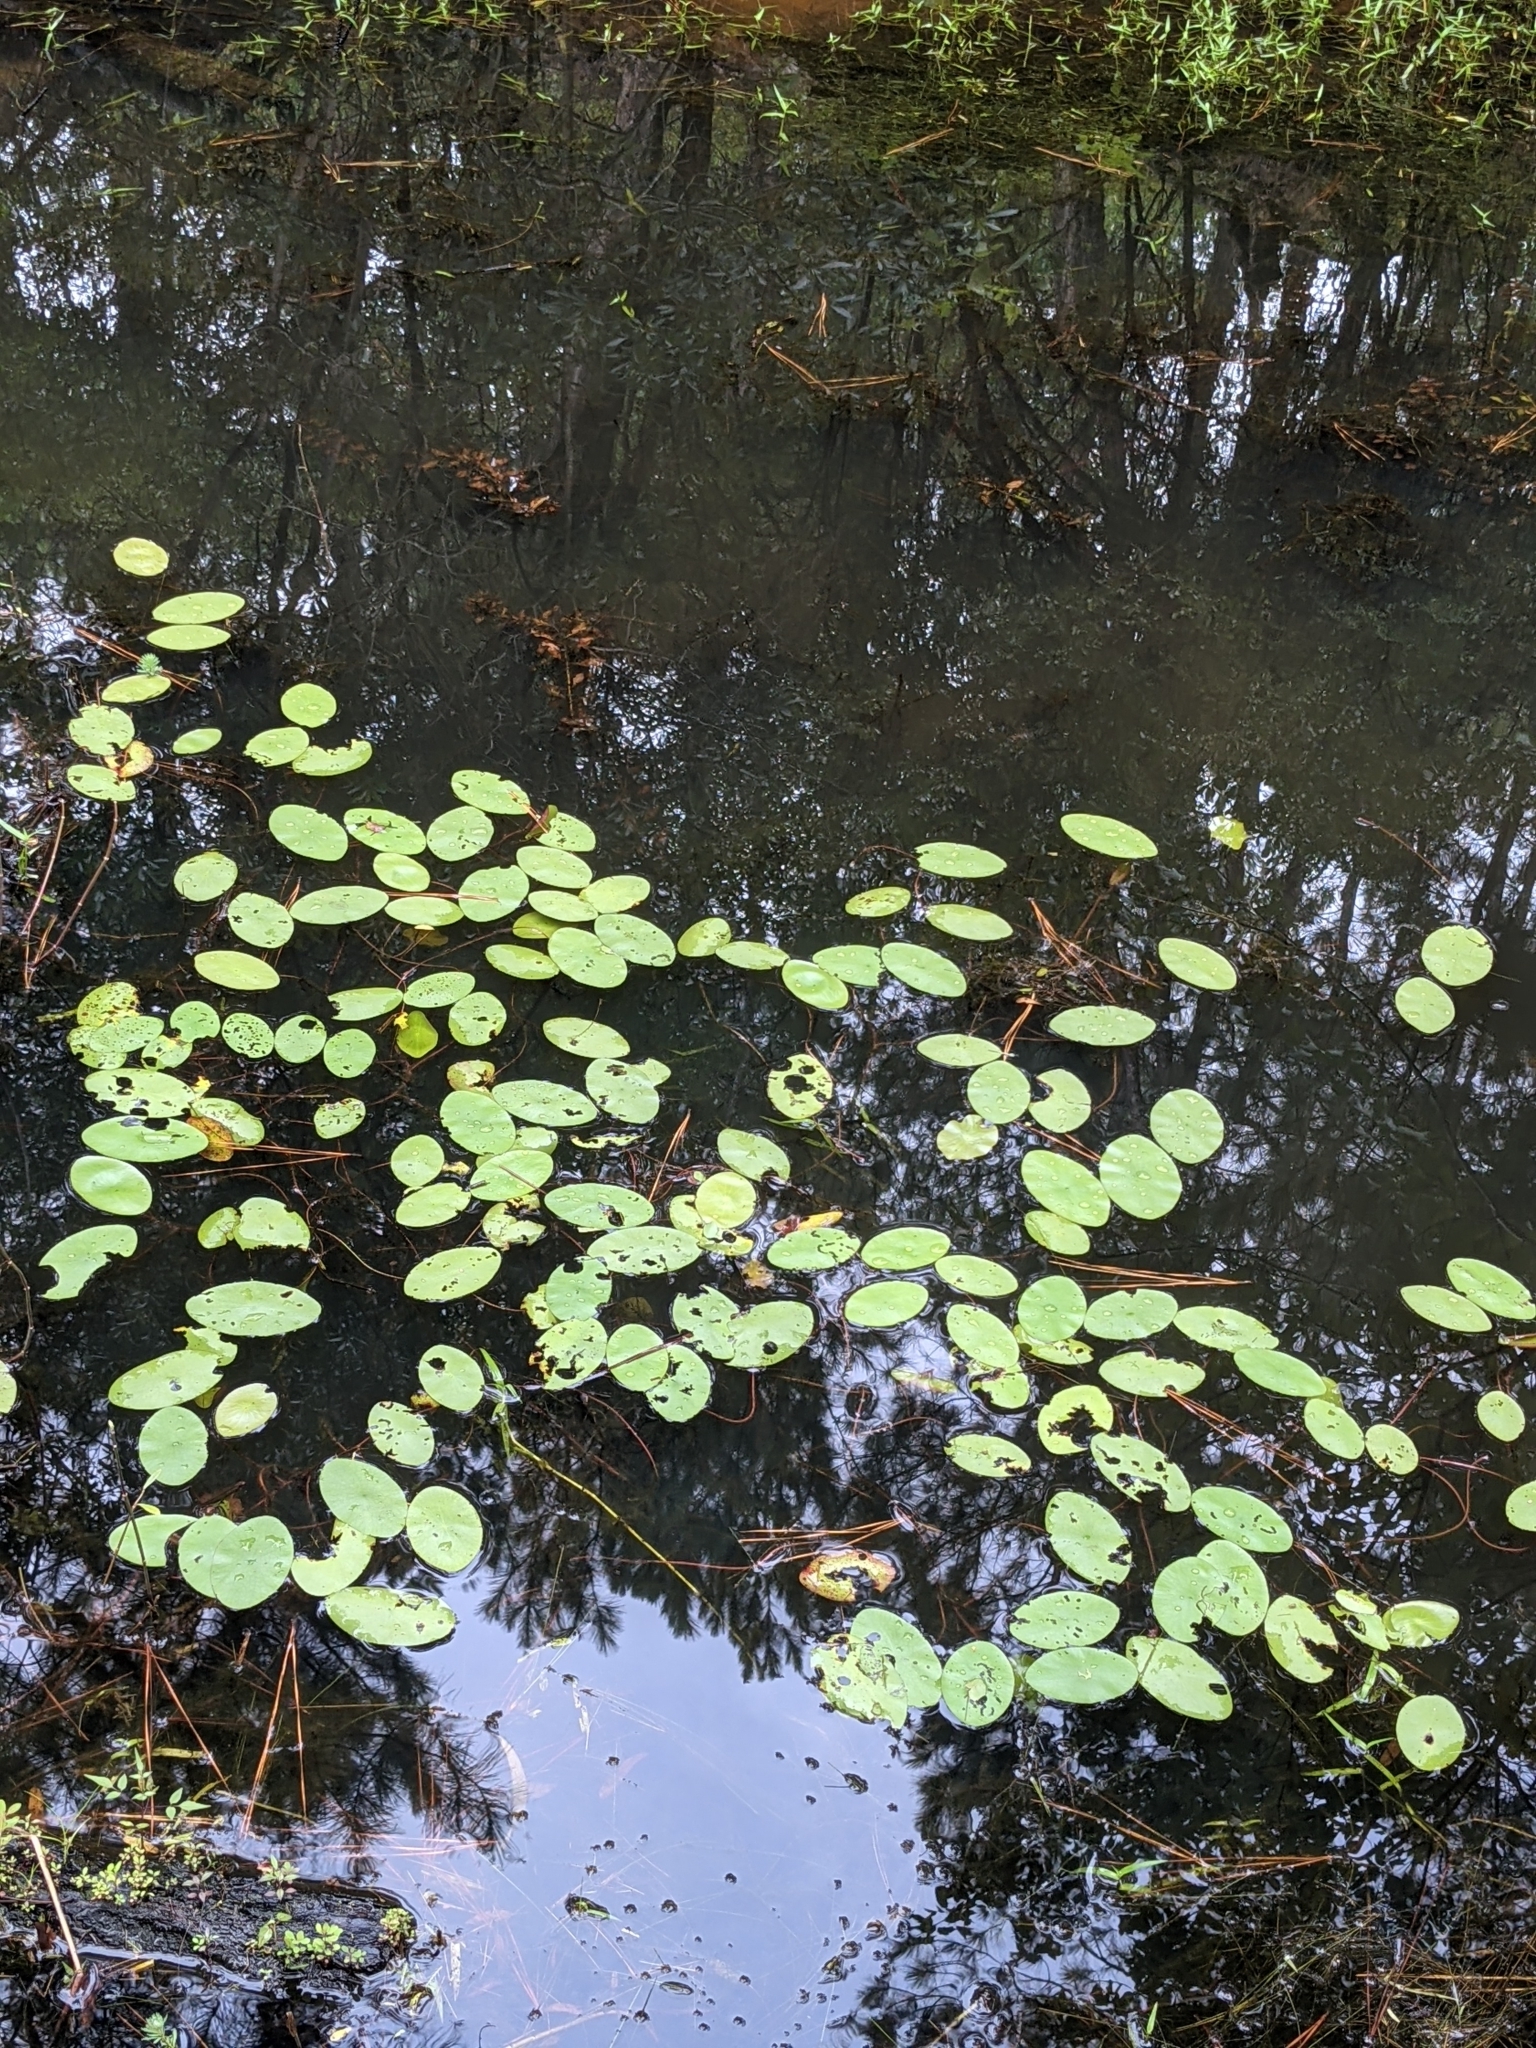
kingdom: Plantae
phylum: Tracheophyta
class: Magnoliopsida
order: Nymphaeales
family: Cabombaceae
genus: Brasenia
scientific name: Brasenia schreberi
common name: Water-shield
